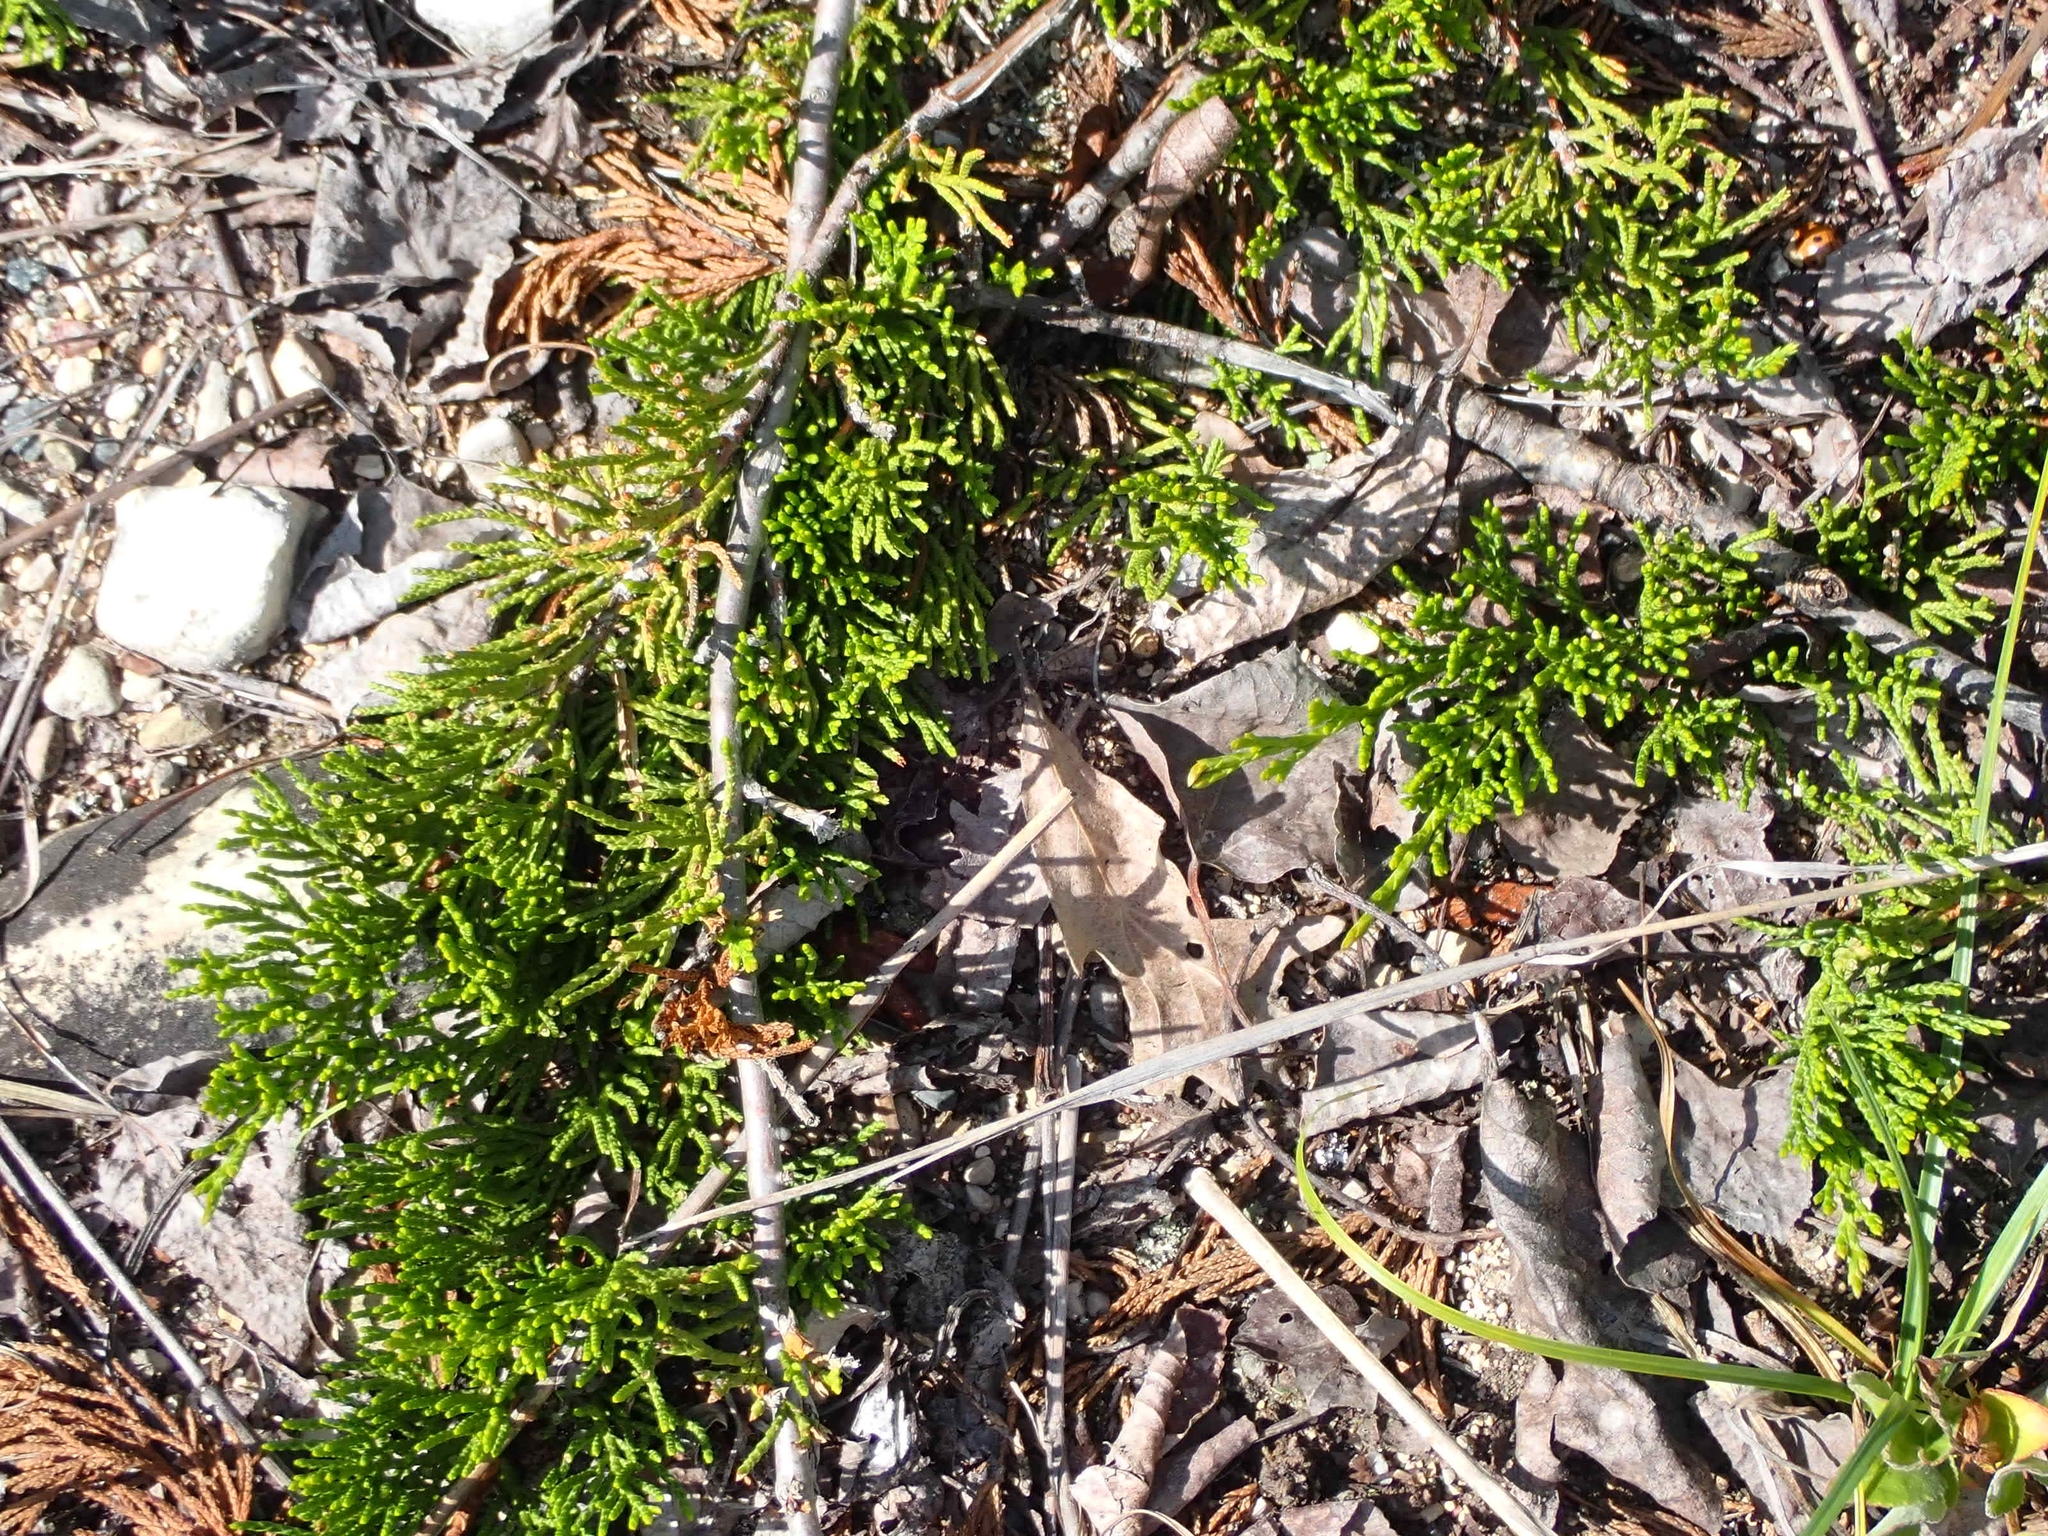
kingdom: Plantae
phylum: Tracheophyta
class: Pinopsida
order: Pinales
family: Cupressaceae
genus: Juniperus
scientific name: Juniperus horizontalis
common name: Creeping juniper
